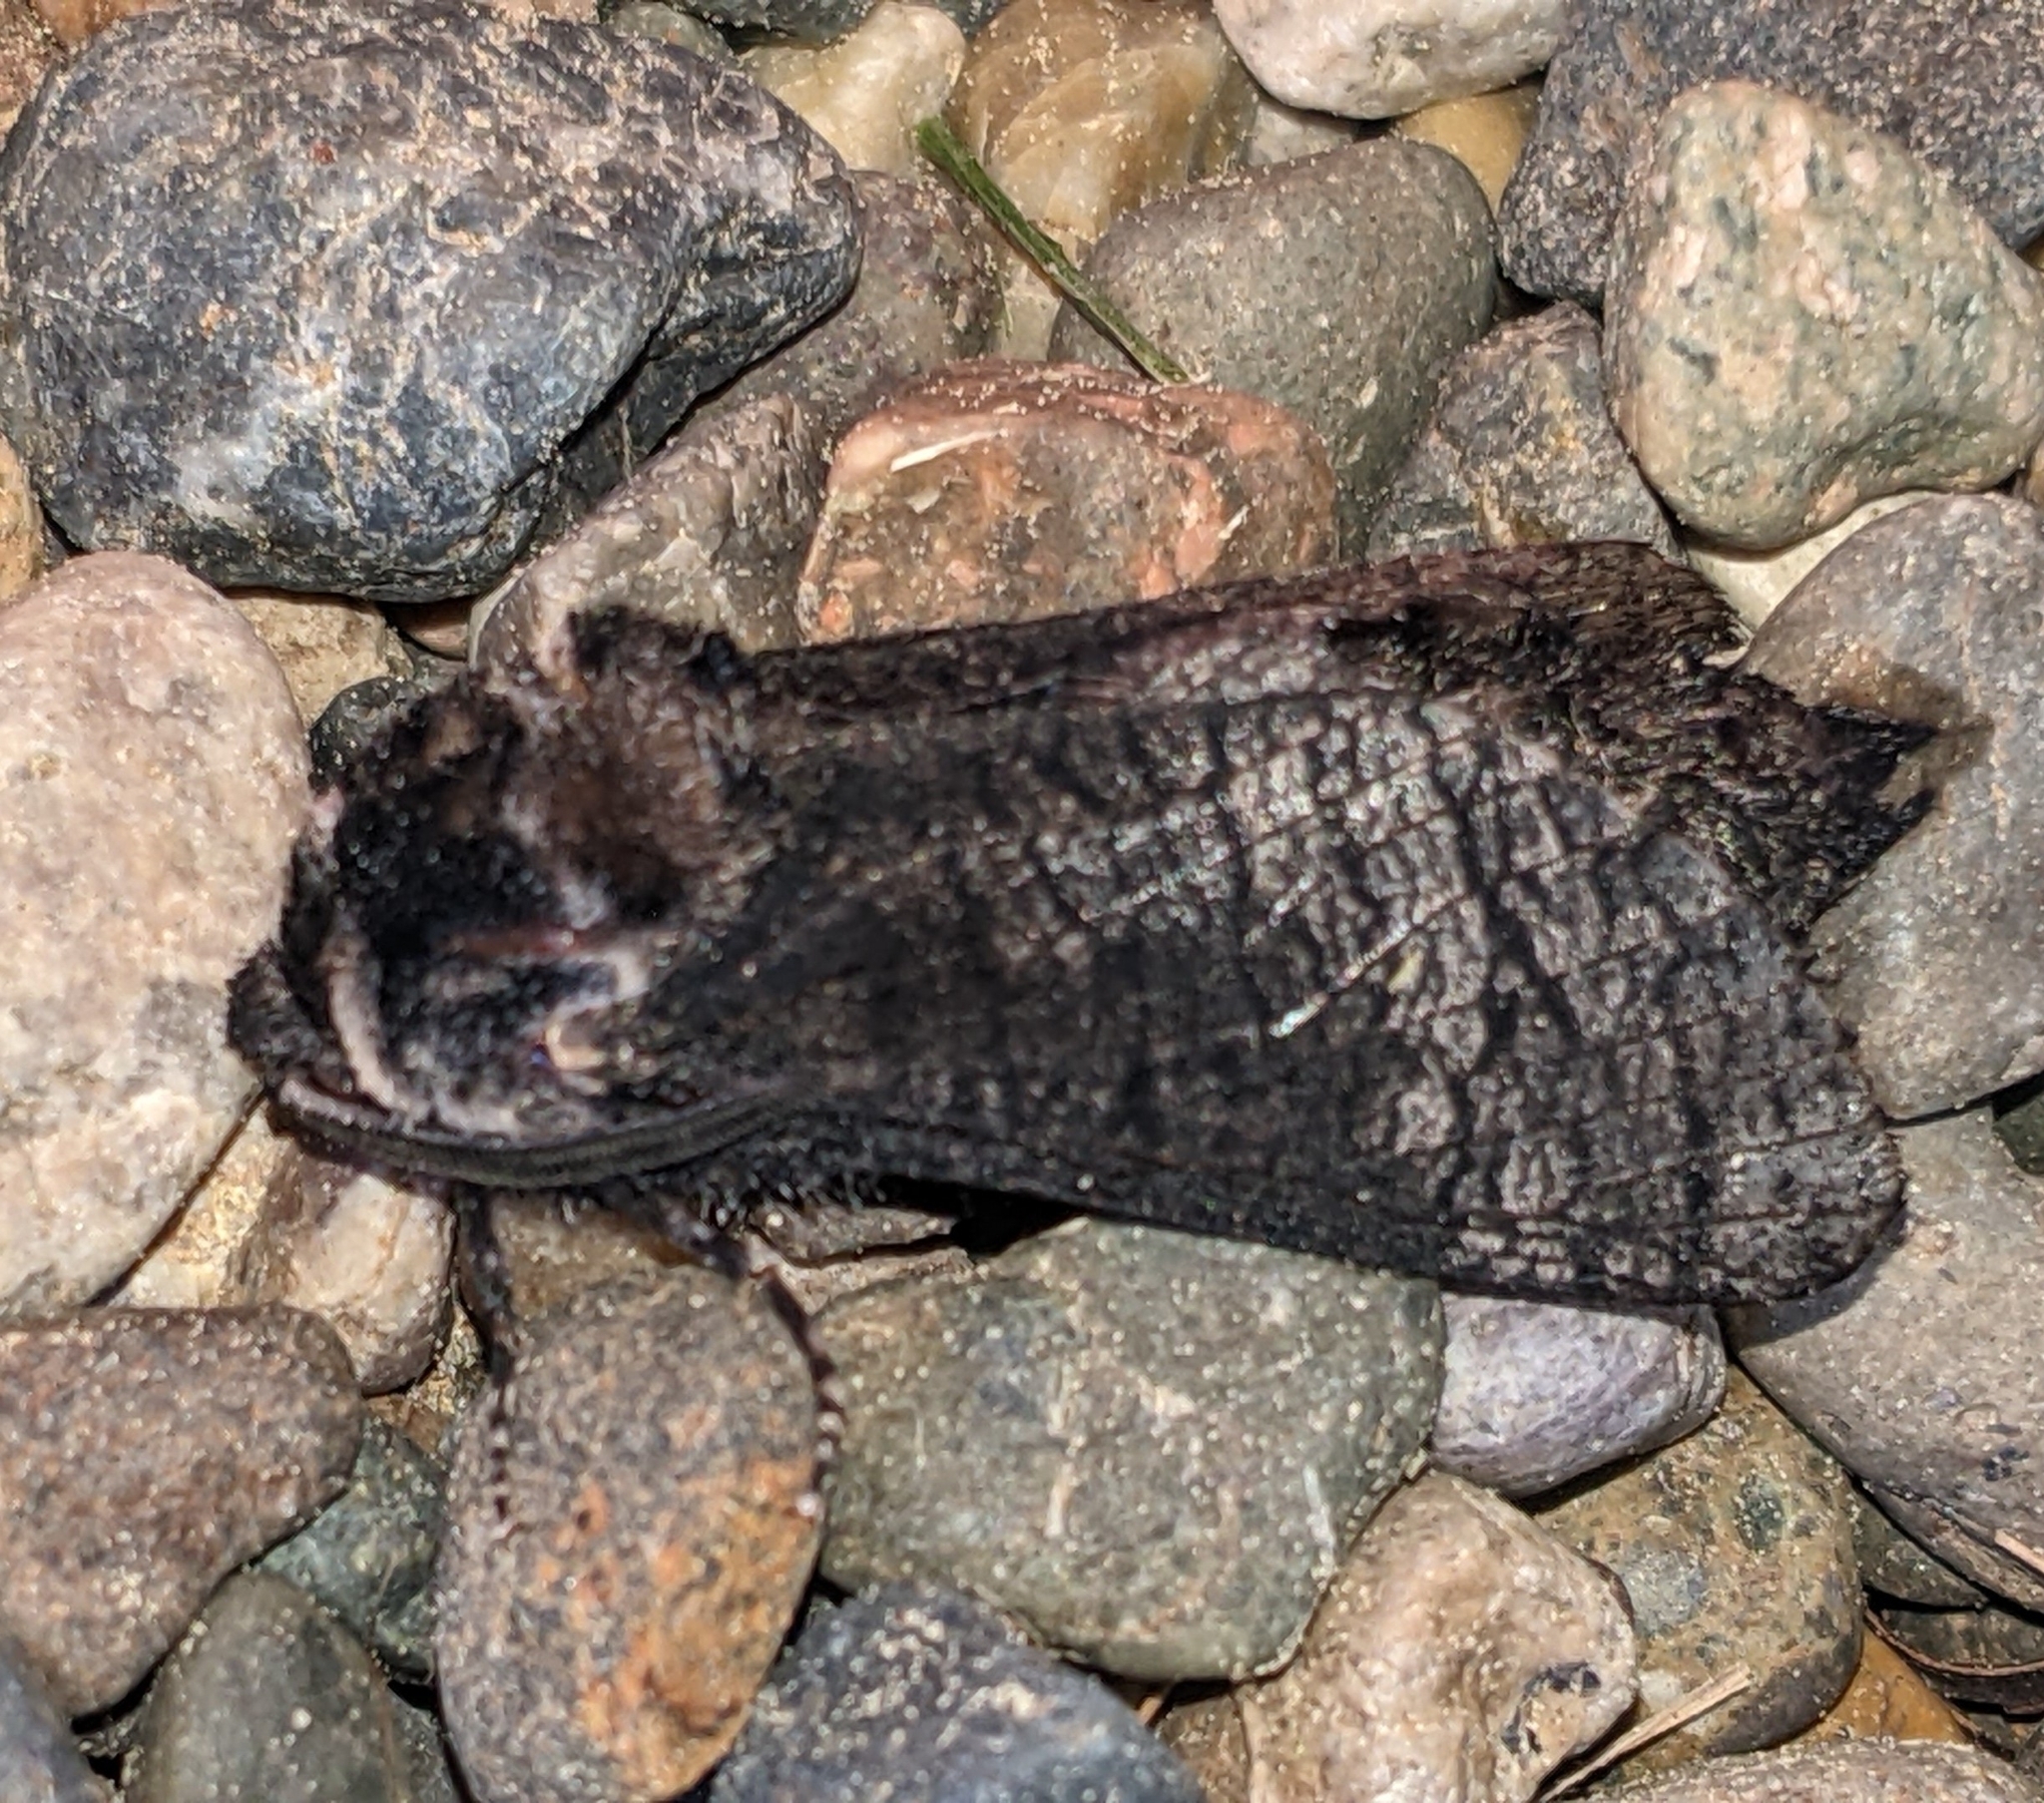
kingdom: Animalia
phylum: Arthropoda
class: Insecta
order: Lepidoptera
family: Cossidae
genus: Acossus
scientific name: Acossus centerensis
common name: Poplar carpenterworm moth
